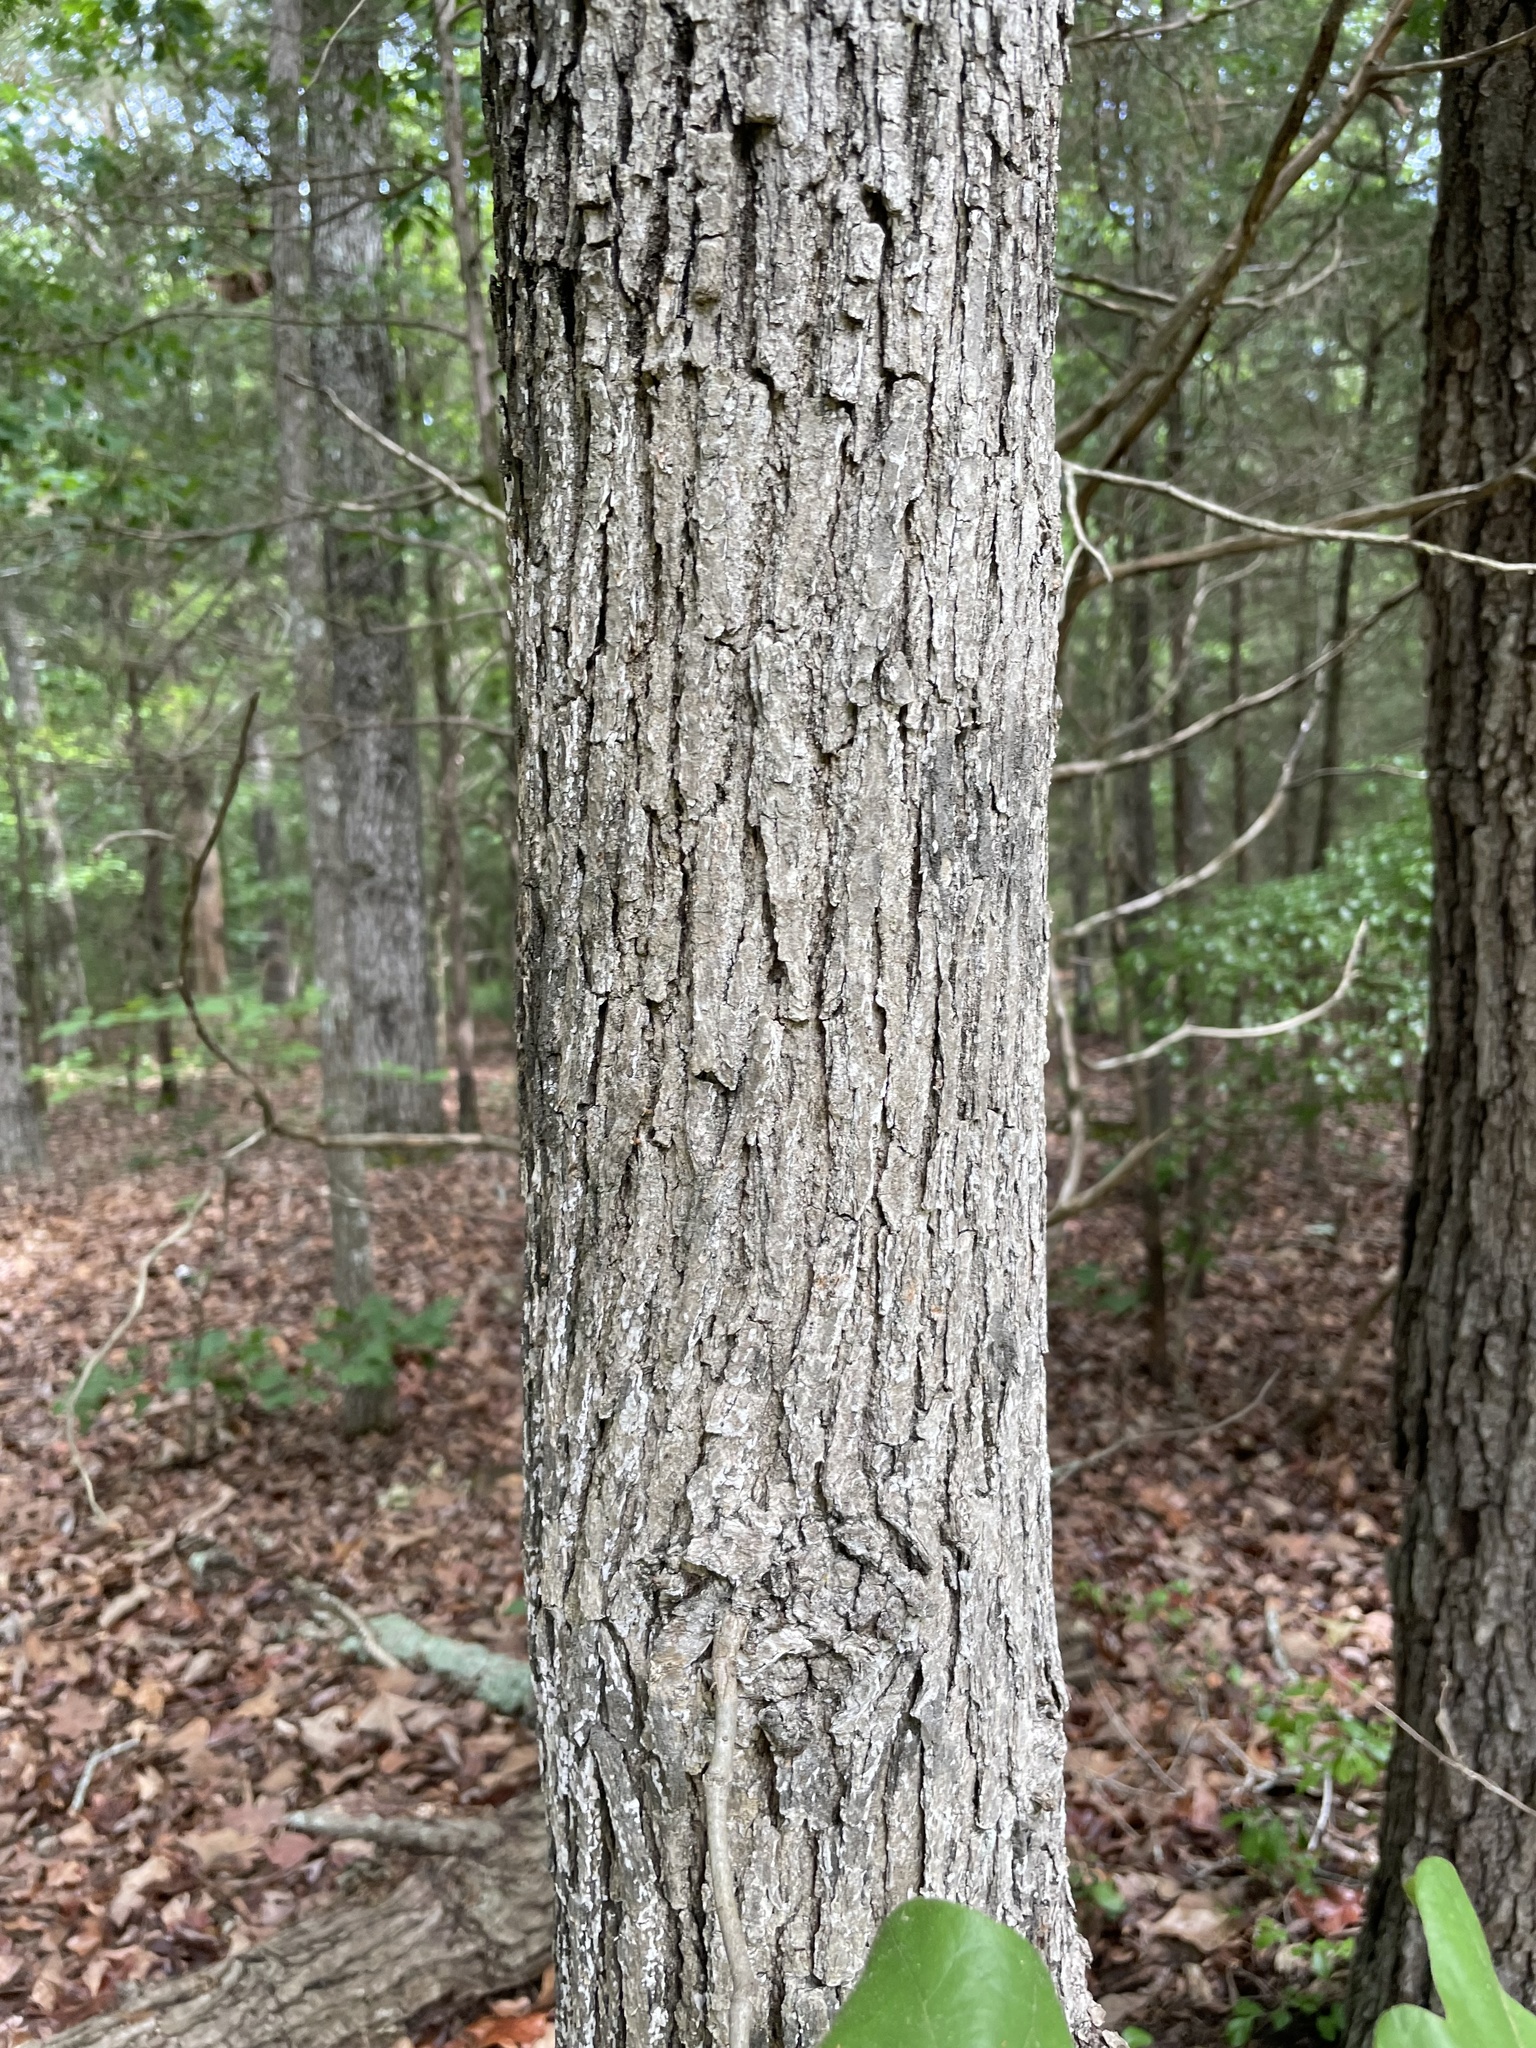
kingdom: Plantae
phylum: Tracheophyta
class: Magnoliopsida
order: Fagales
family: Fagaceae
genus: Quercus
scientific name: Quercus stellata
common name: Post oak
